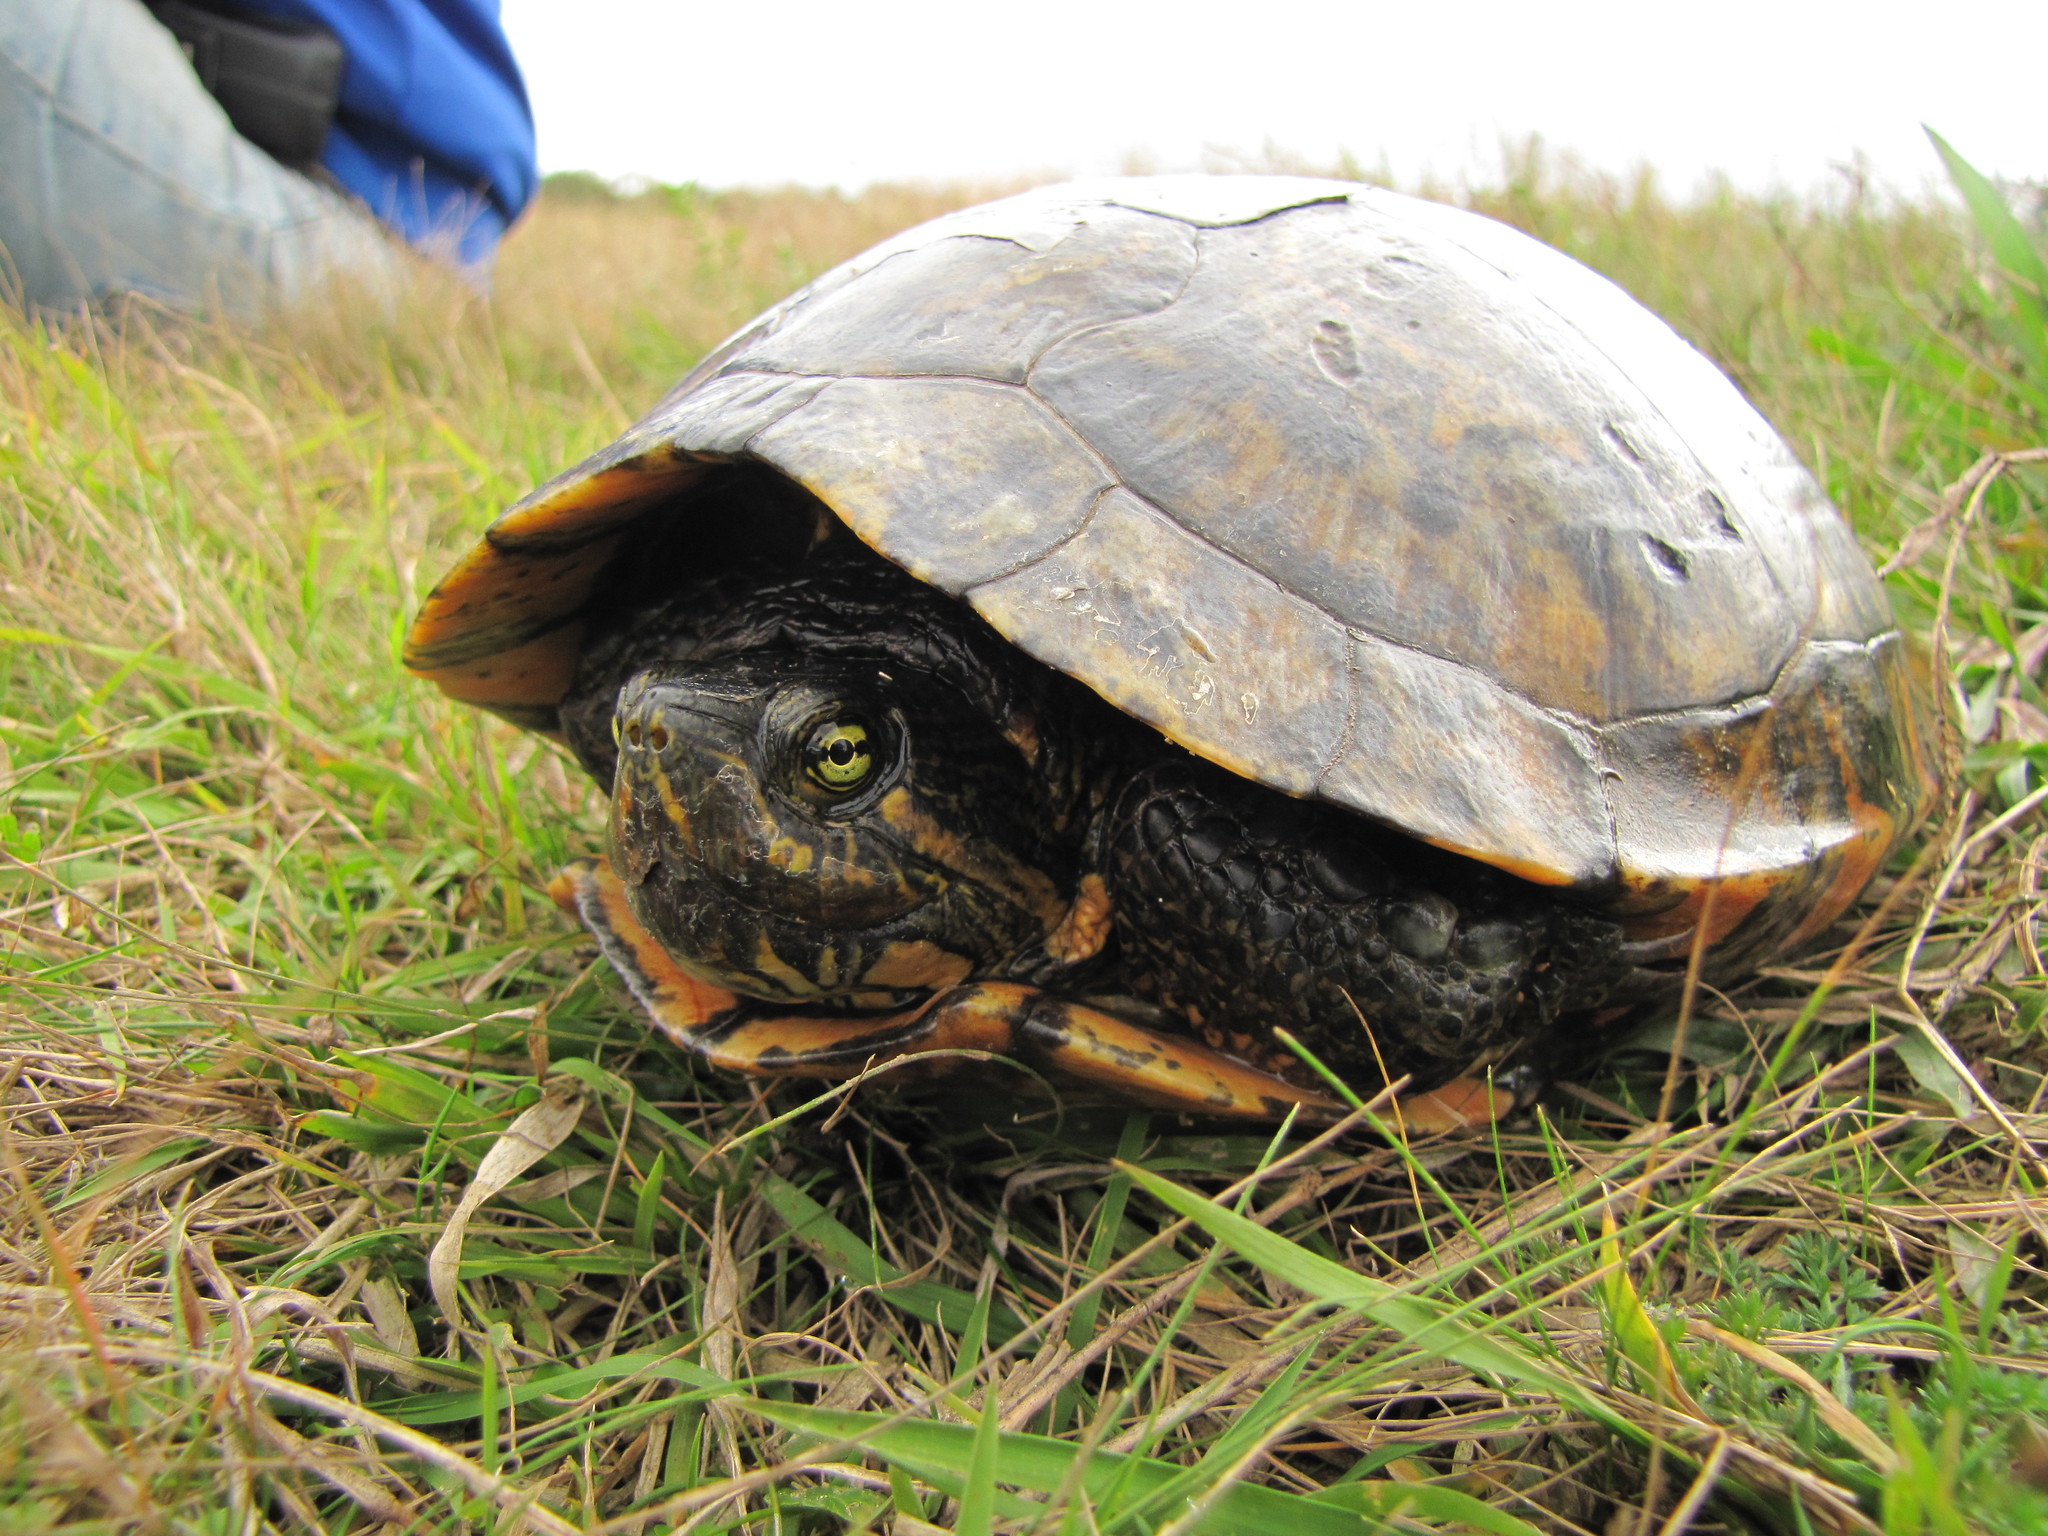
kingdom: Animalia
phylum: Chordata
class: Testudines
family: Emydidae
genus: Trachemys
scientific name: Trachemys dorbigni
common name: Black-bellied slider
